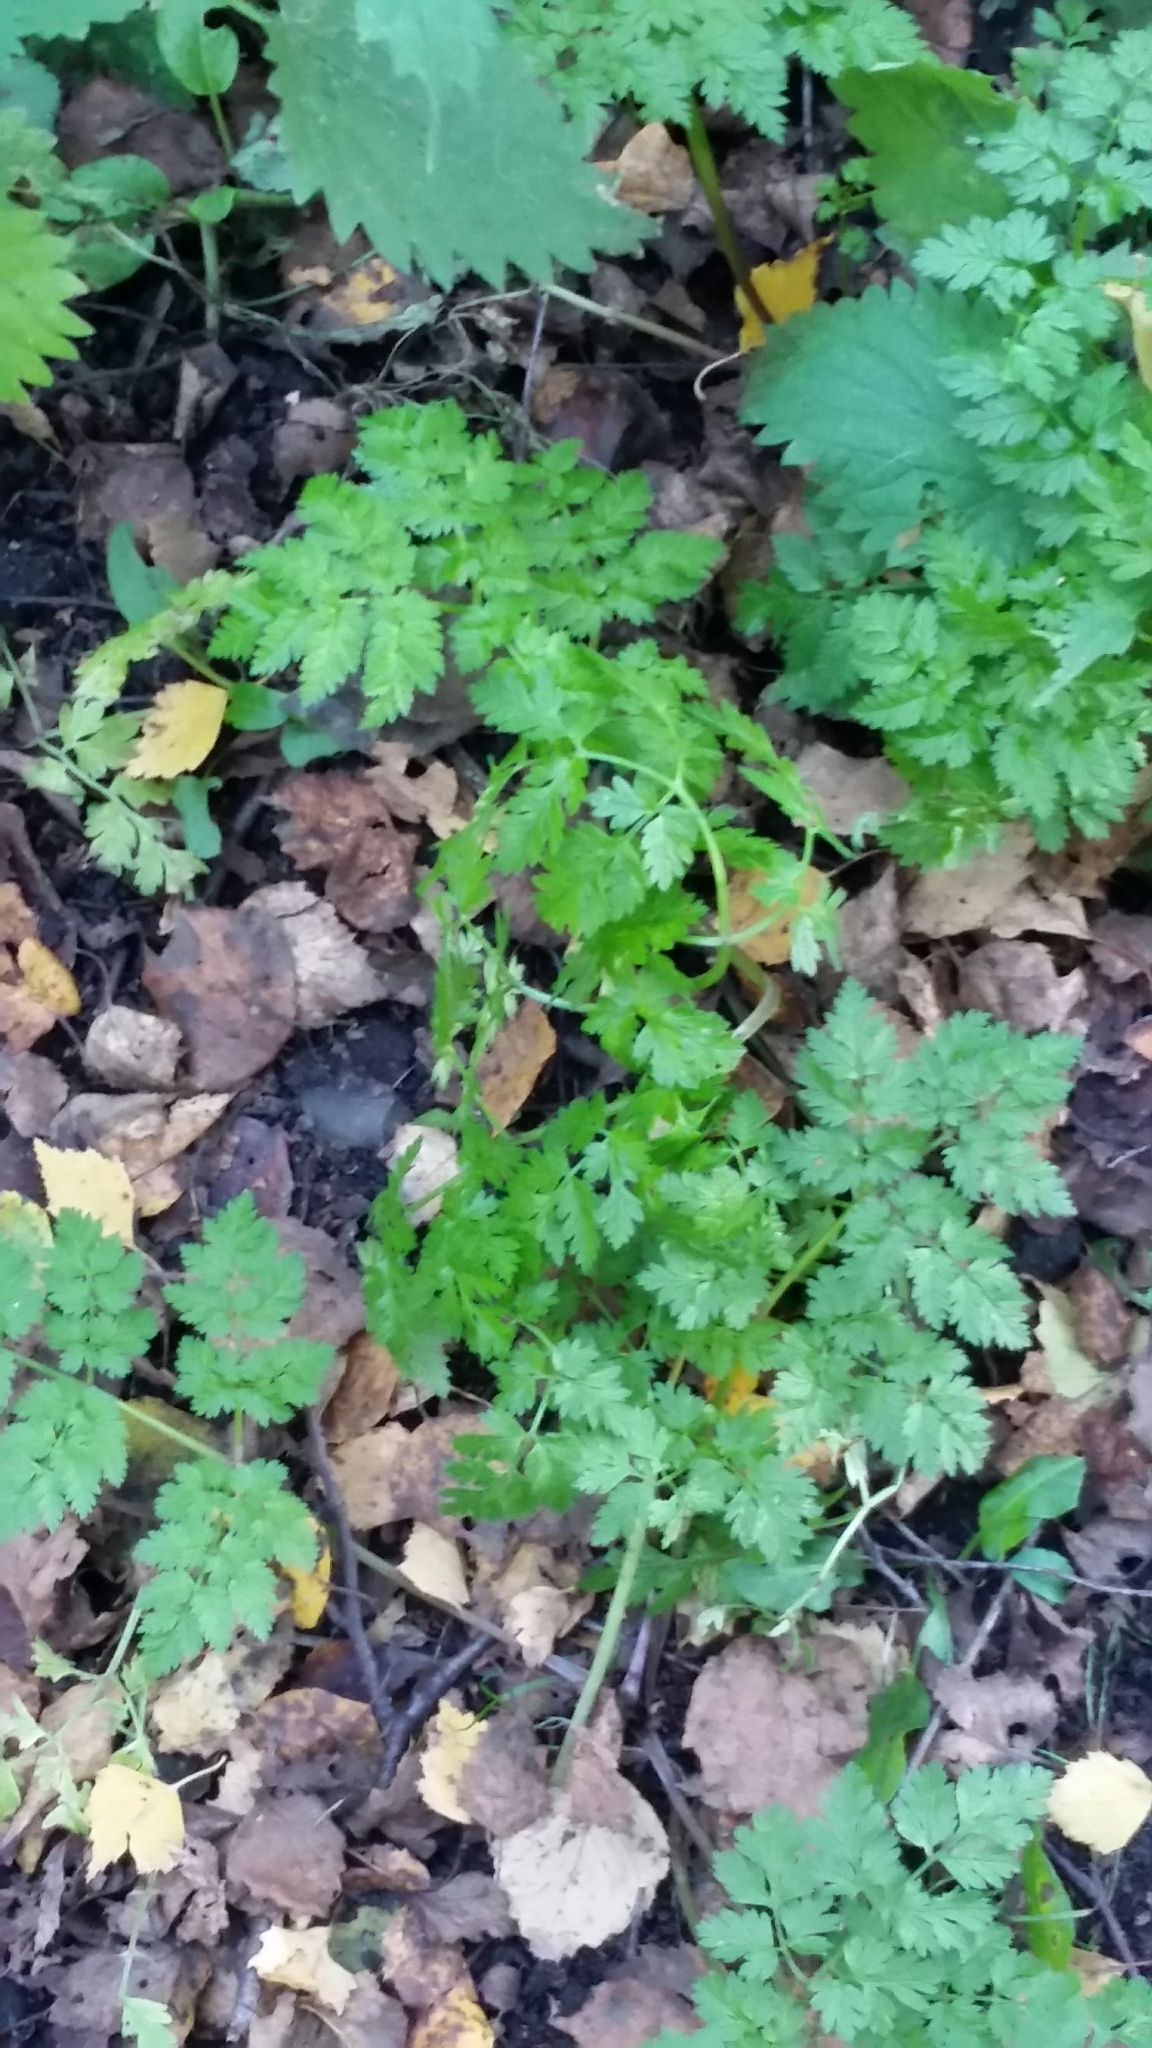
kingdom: Plantae
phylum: Tracheophyta
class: Magnoliopsida
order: Apiales
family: Apiaceae
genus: Anthriscus
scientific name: Anthriscus sylvestris
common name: Cow parsley
